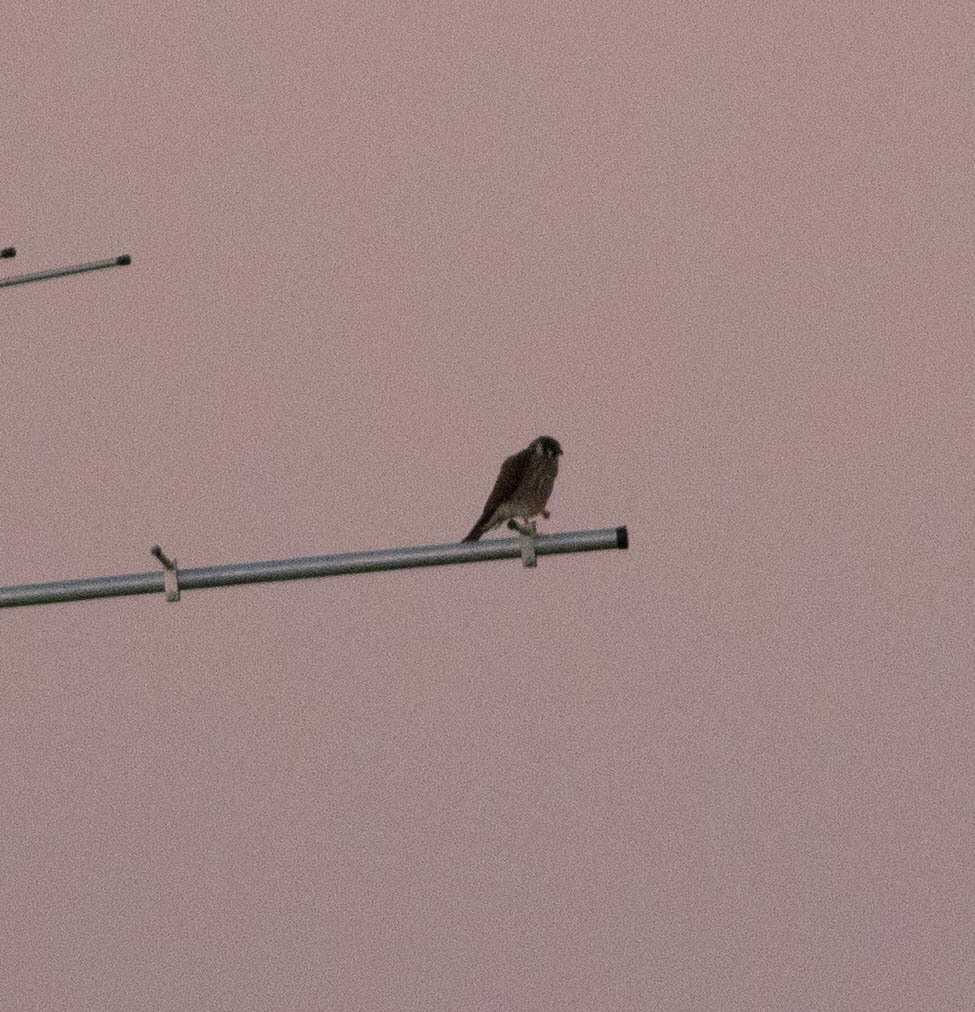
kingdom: Animalia
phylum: Chordata
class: Aves
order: Falconiformes
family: Falconidae
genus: Falco
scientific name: Falco sparverius
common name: American kestrel
